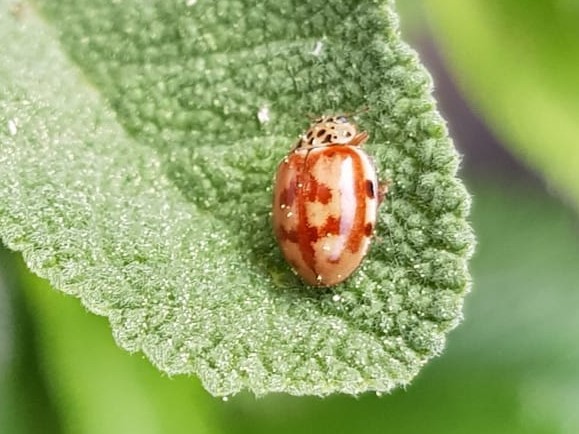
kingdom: Animalia
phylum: Arthropoda
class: Insecta
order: Coleoptera
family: Coccinellidae
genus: Harmonia
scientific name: Harmonia quadripunctata
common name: Cream-streaked ladybird
